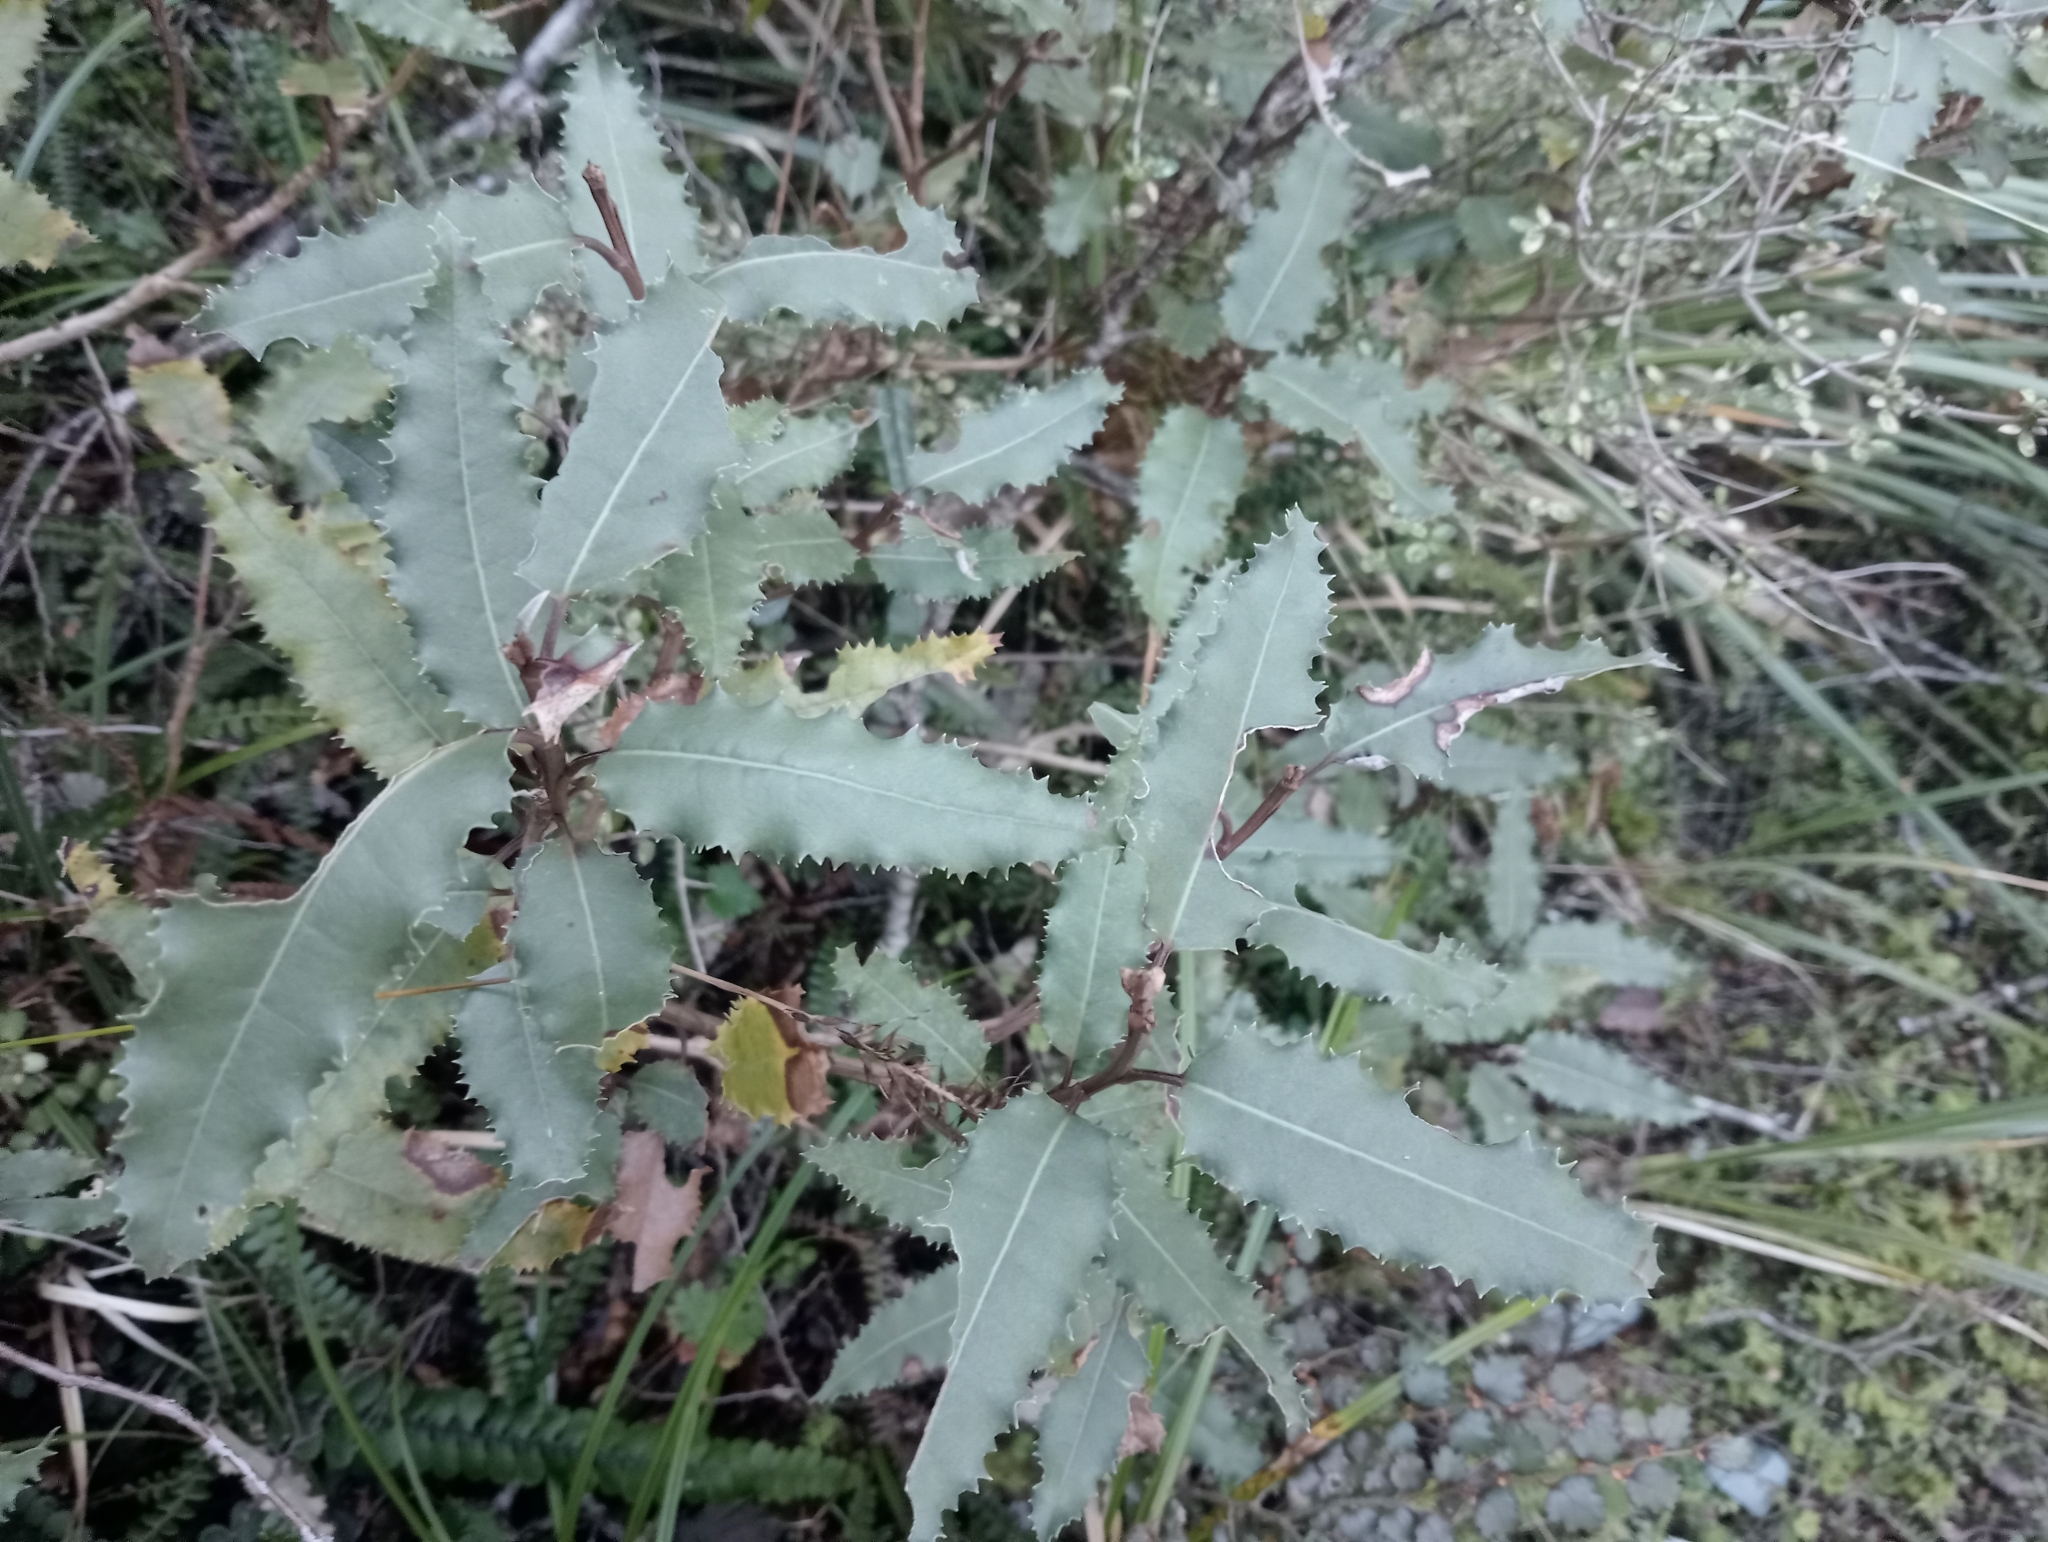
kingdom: Plantae
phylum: Tracheophyta
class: Magnoliopsida
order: Asterales
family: Asteraceae
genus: Olearia
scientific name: Olearia ilicifolia
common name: Maori-holly
